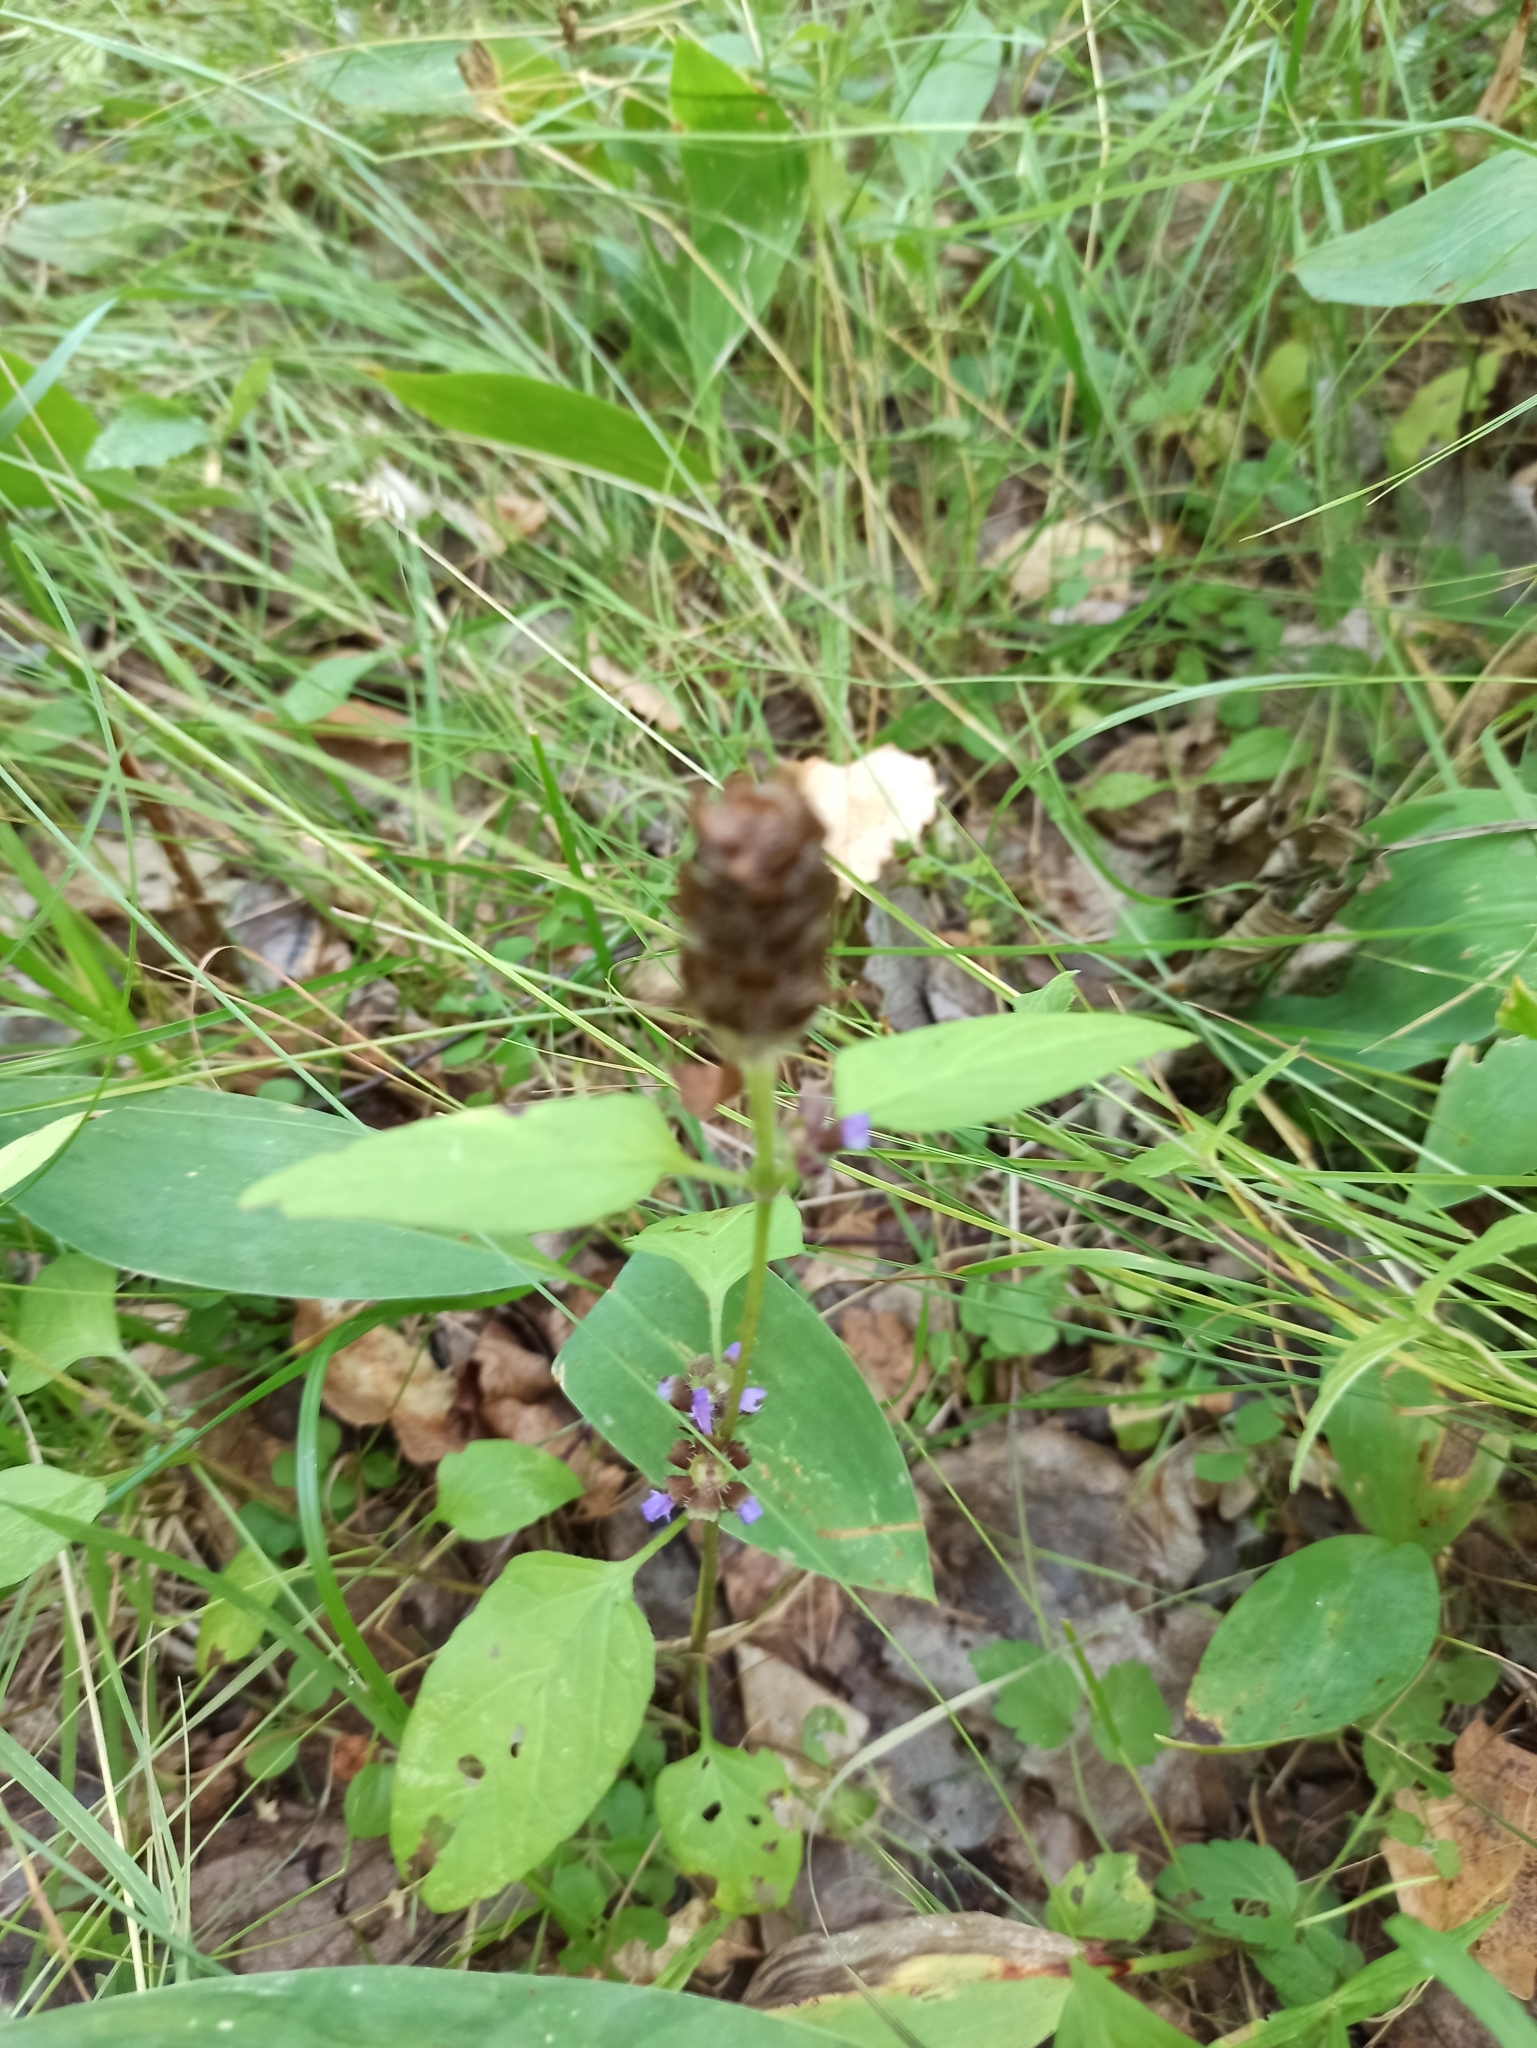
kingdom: Plantae
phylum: Tracheophyta
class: Magnoliopsida
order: Lamiales
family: Lamiaceae
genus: Prunella
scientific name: Prunella vulgaris
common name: Heal-all
